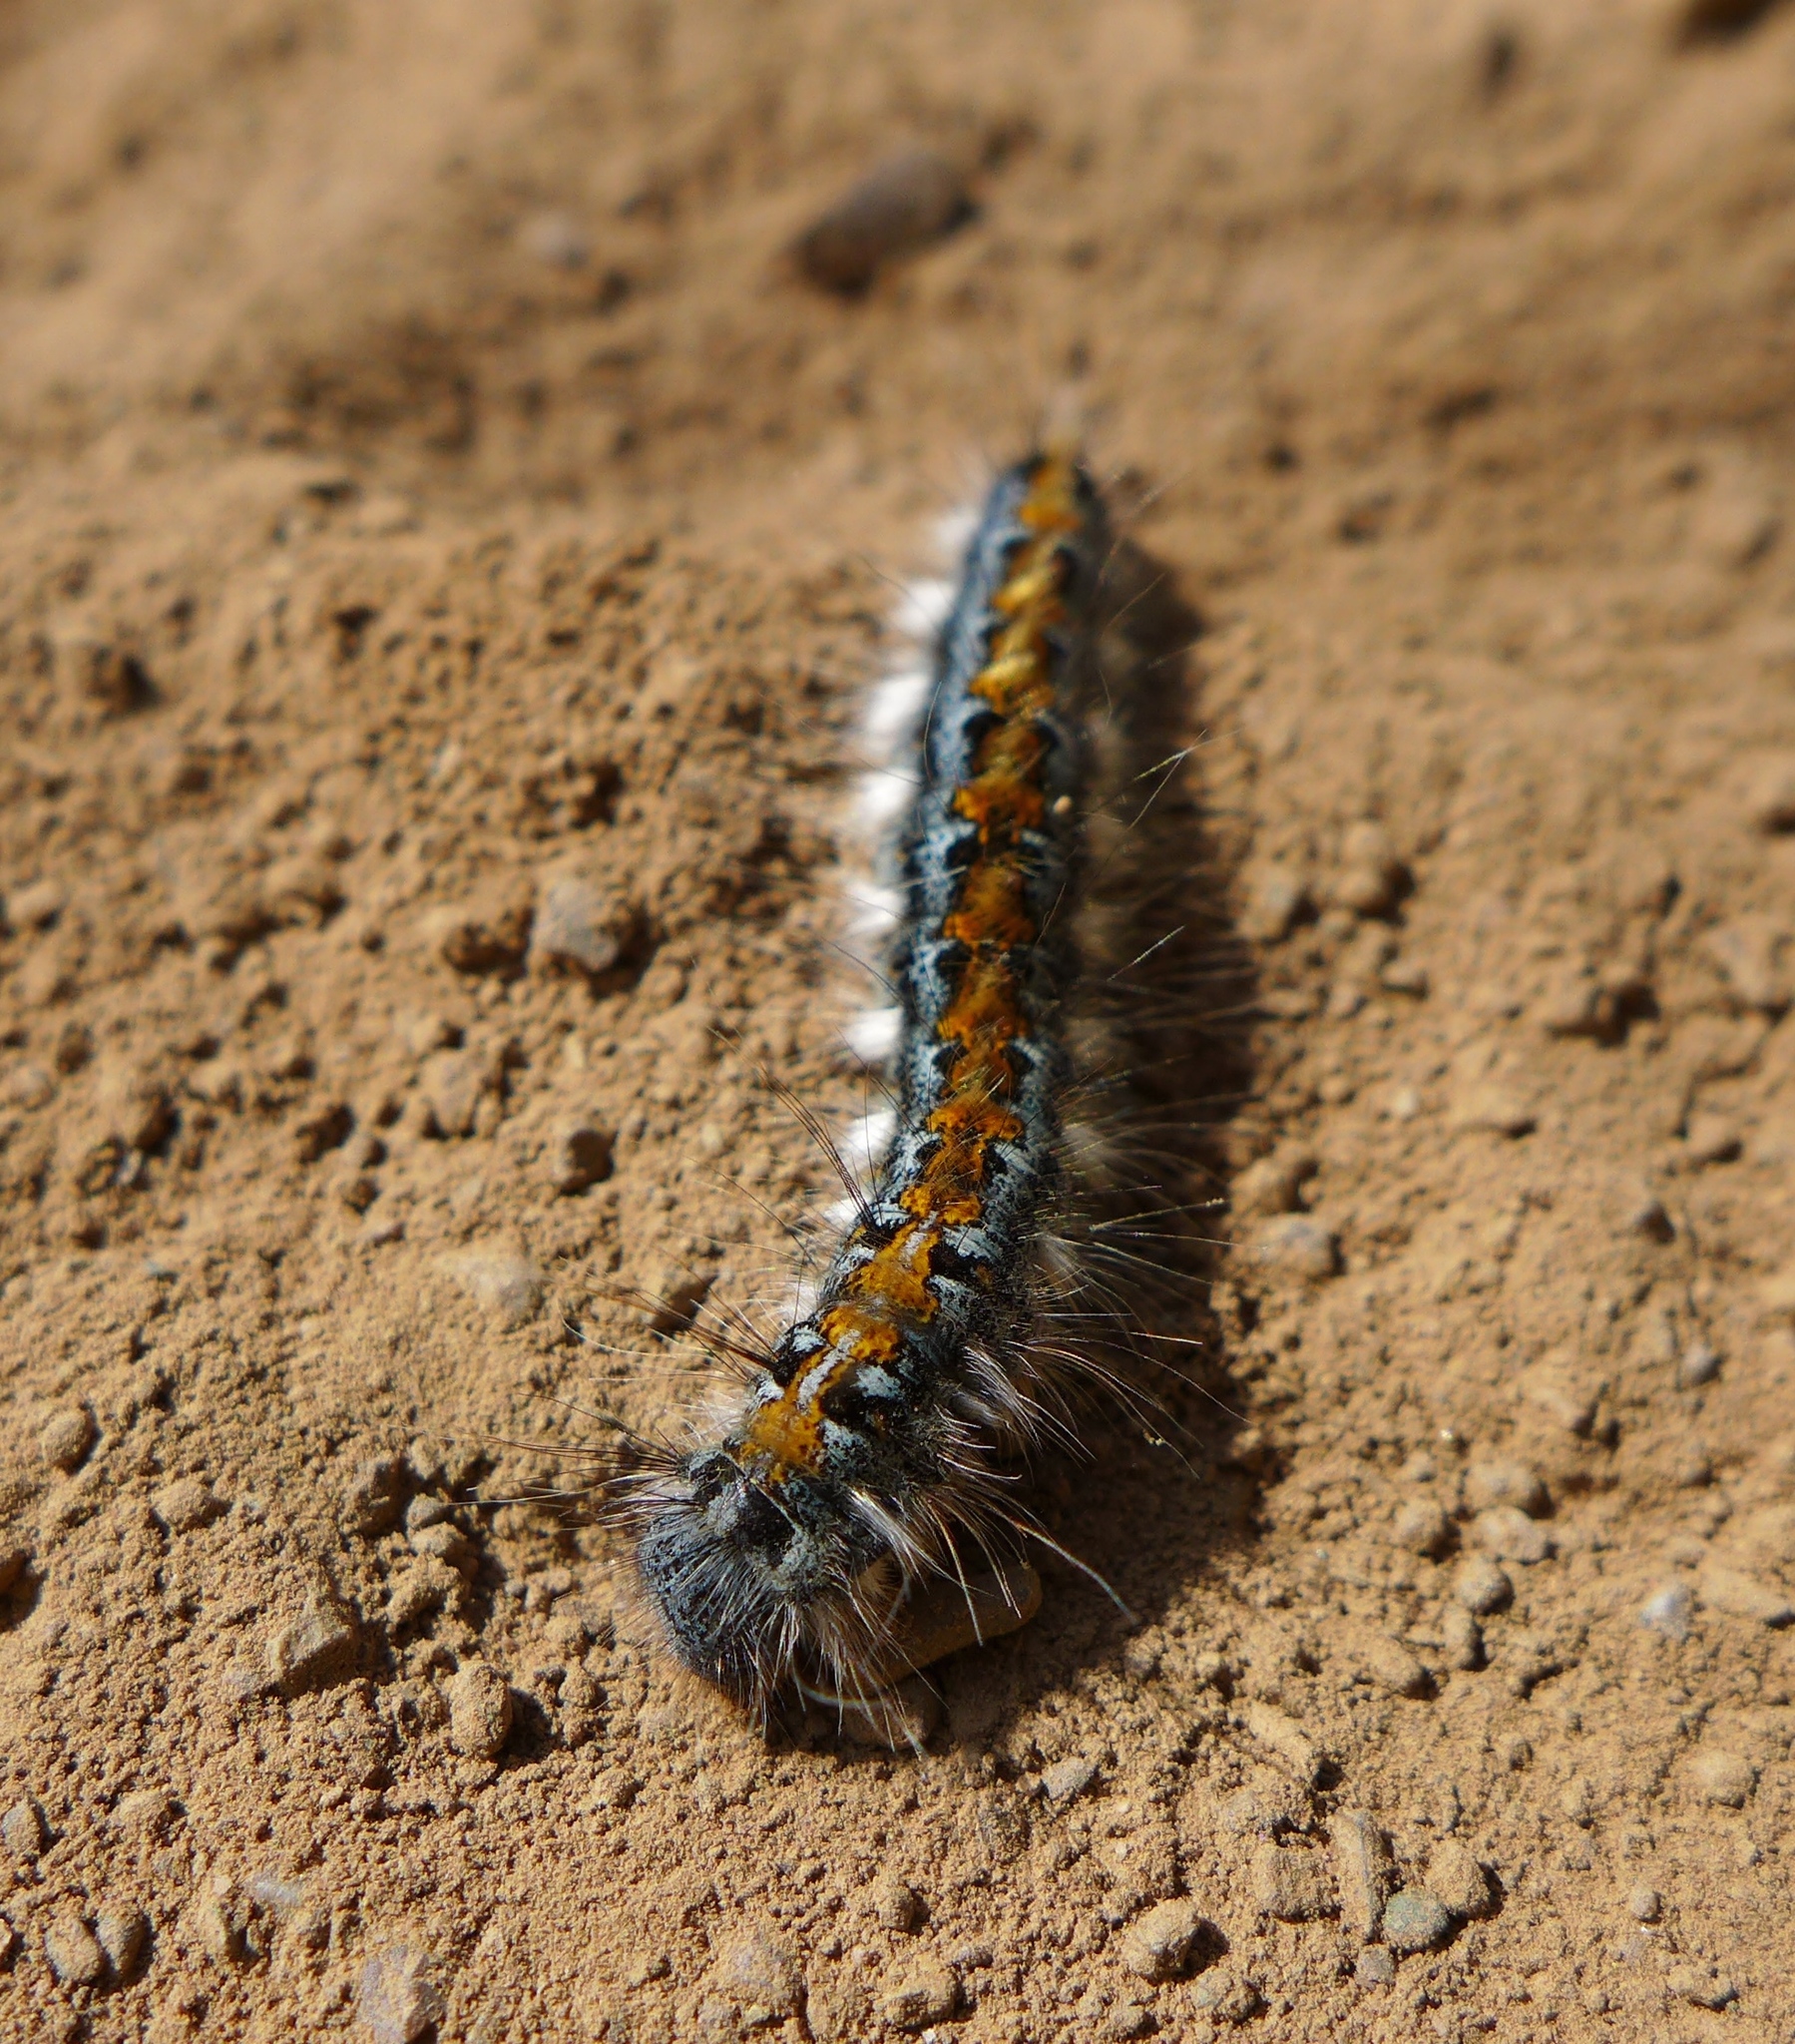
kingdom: Animalia
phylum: Arthropoda
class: Insecta
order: Lepidoptera
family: Lasiocampidae
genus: Malacosoma
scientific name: Malacosoma constricta
